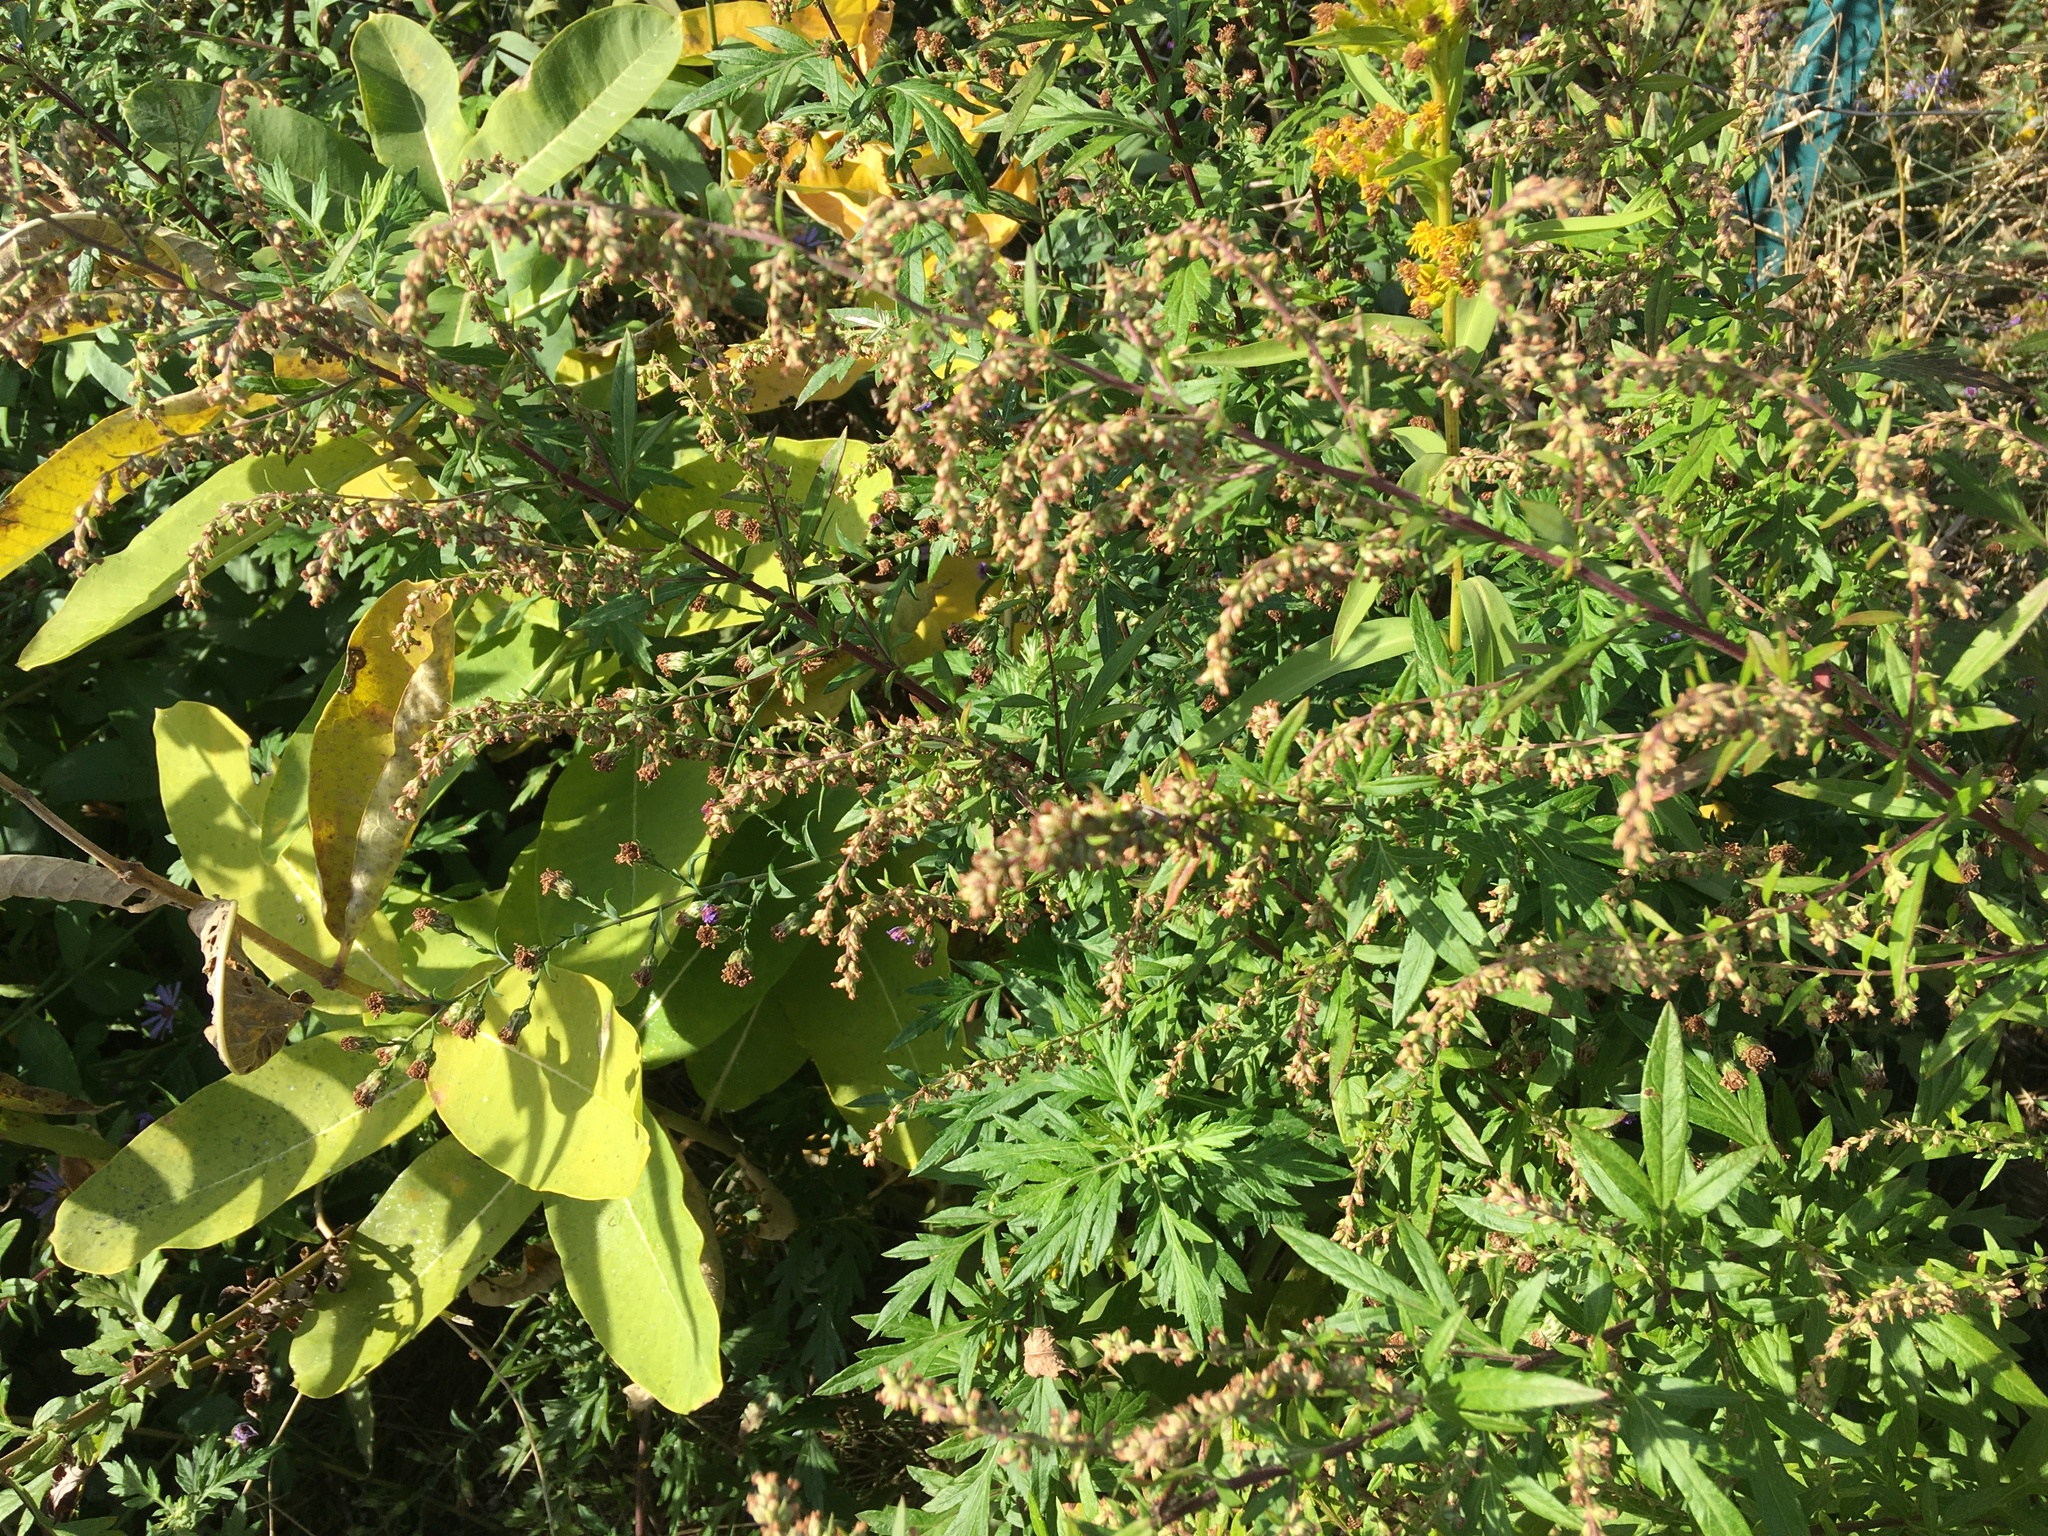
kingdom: Plantae
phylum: Tracheophyta
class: Magnoliopsida
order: Asterales
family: Asteraceae
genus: Artemisia
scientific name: Artemisia vulgaris
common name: Mugwort
